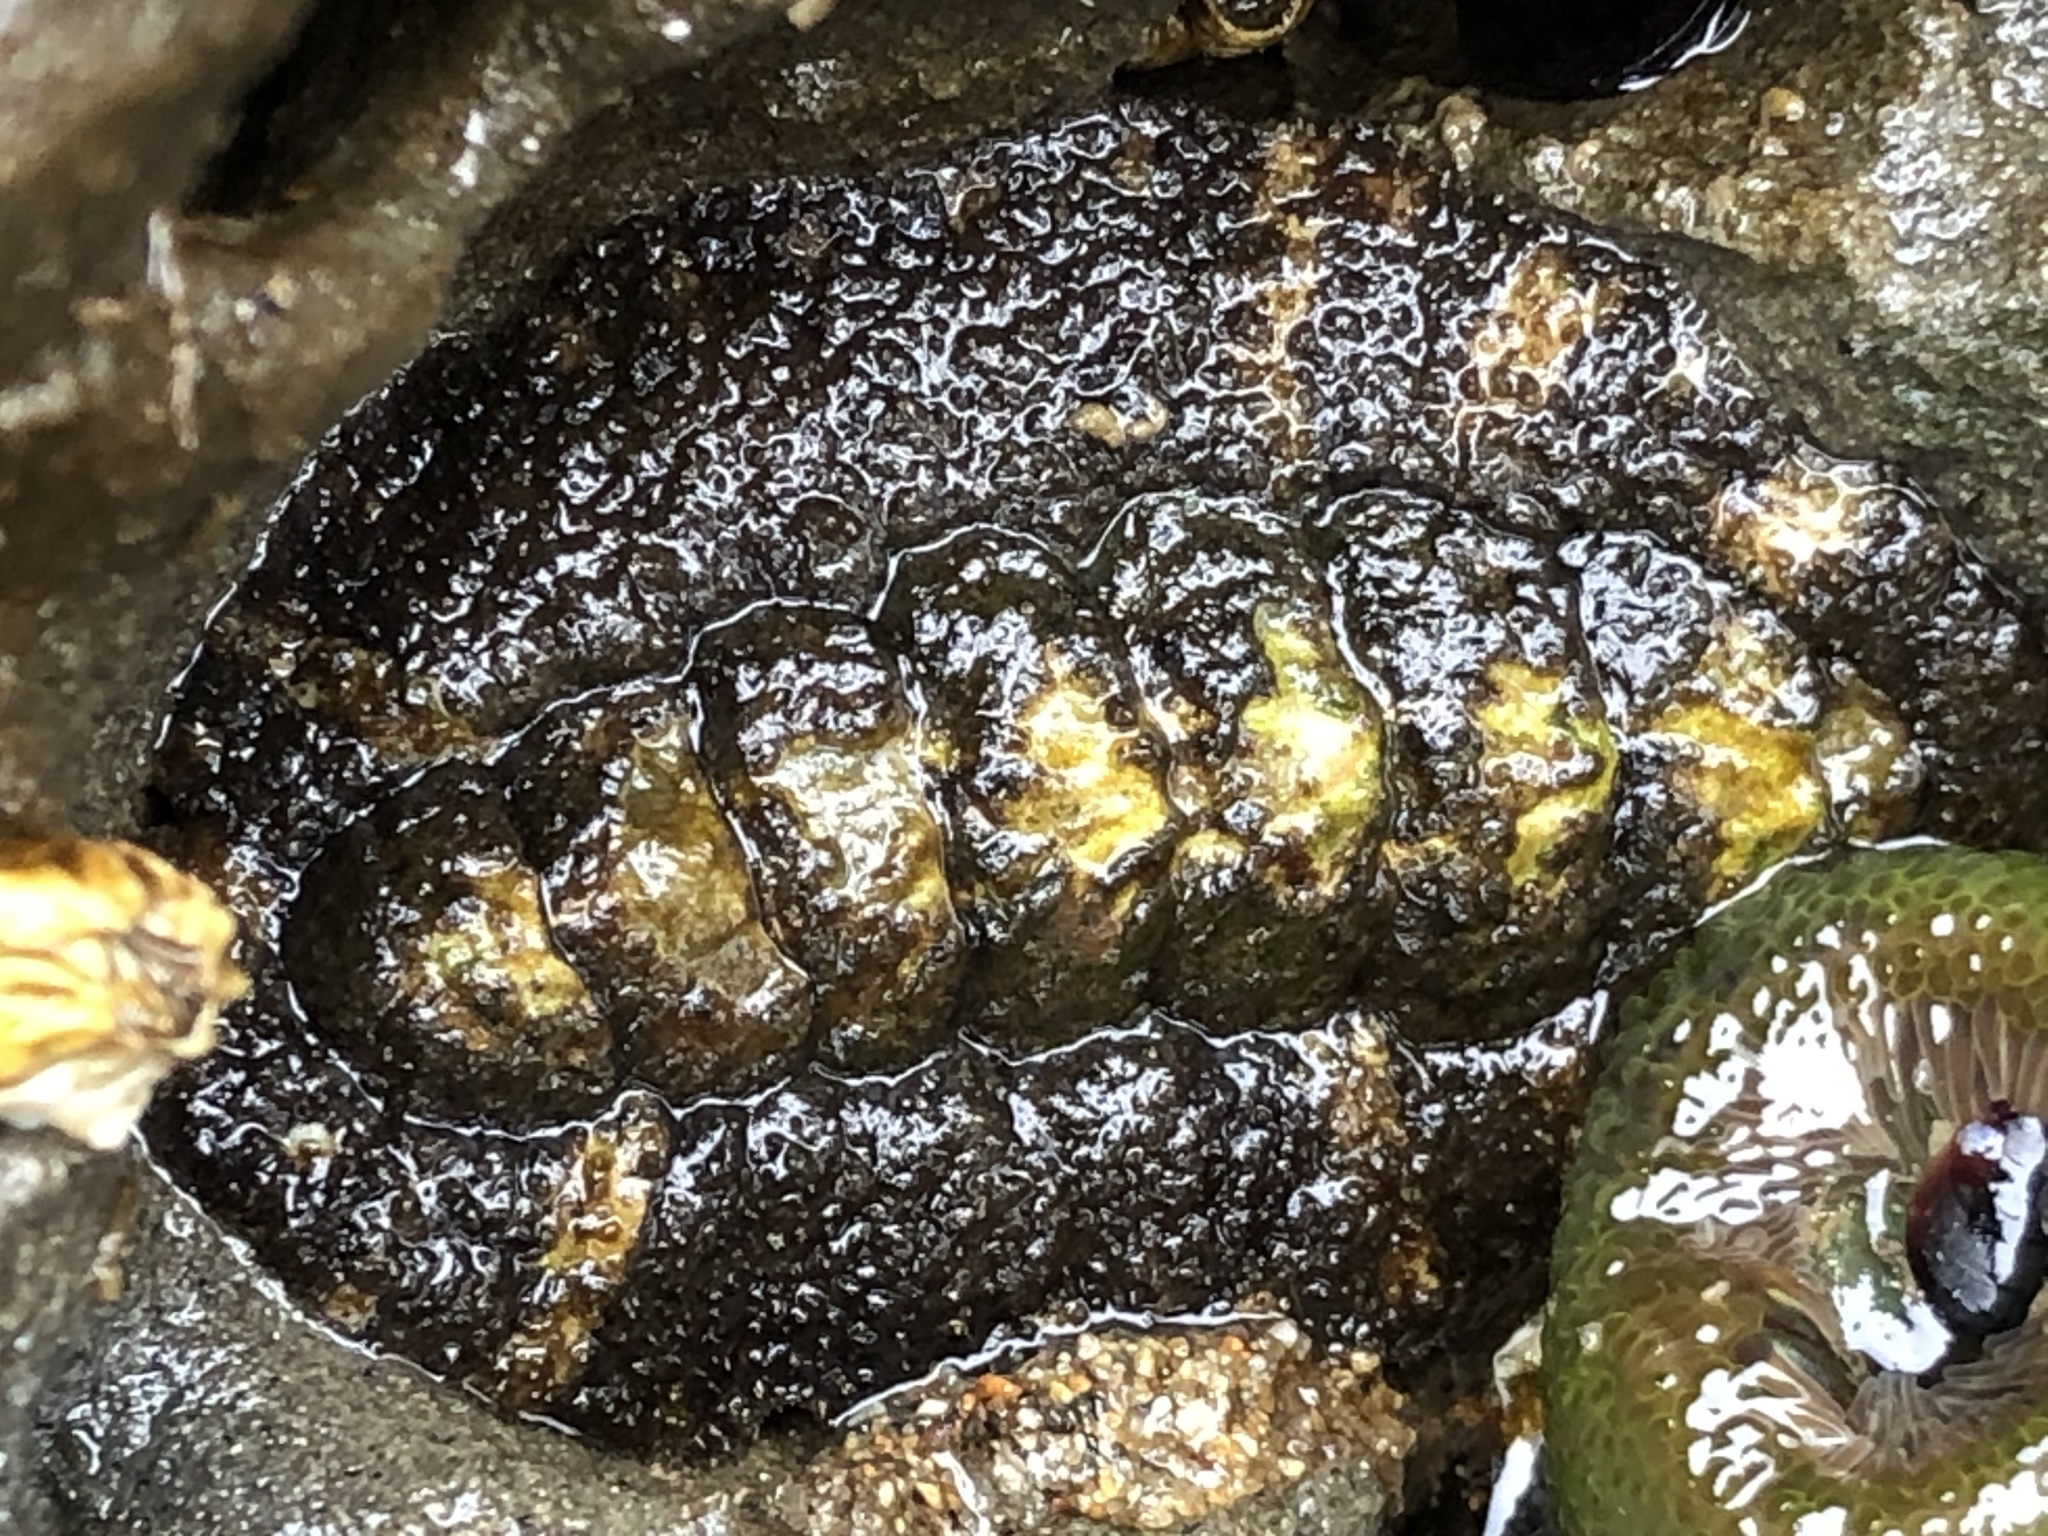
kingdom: Animalia
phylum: Mollusca
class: Polyplacophora
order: Chitonida
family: Tonicellidae
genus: Nuttallina
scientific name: Nuttallina californica
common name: California nuttall chiton
